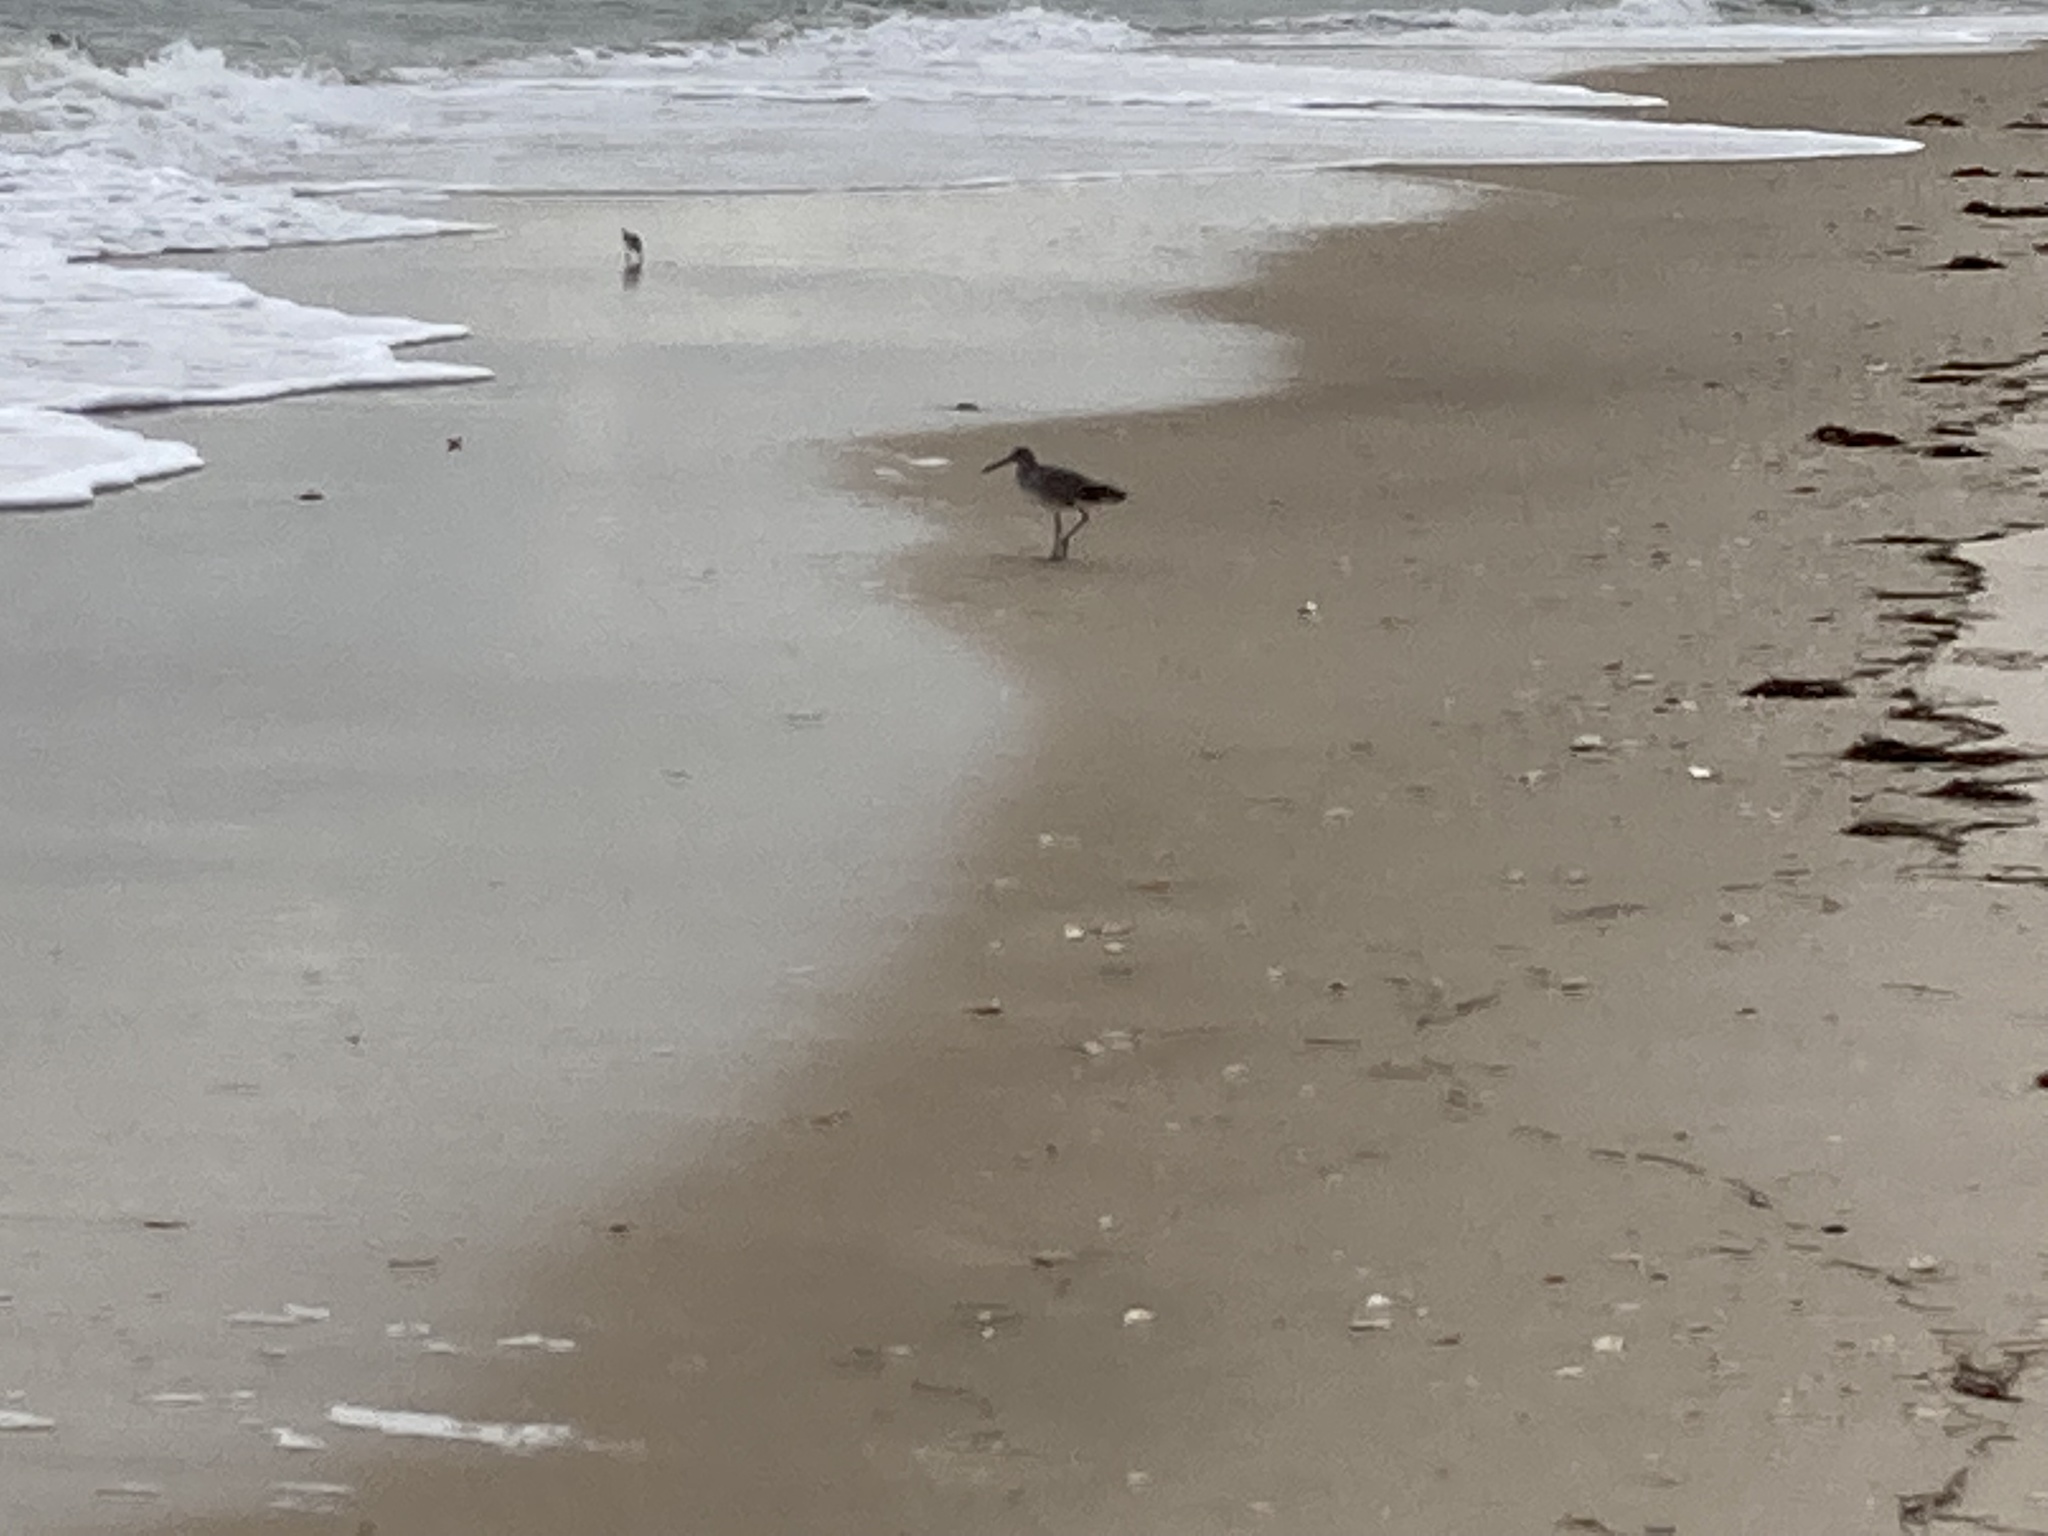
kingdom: Animalia
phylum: Chordata
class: Aves
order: Charadriiformes
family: Scolopacidae
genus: Tringa
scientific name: Tringa semipalmata
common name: Willet
